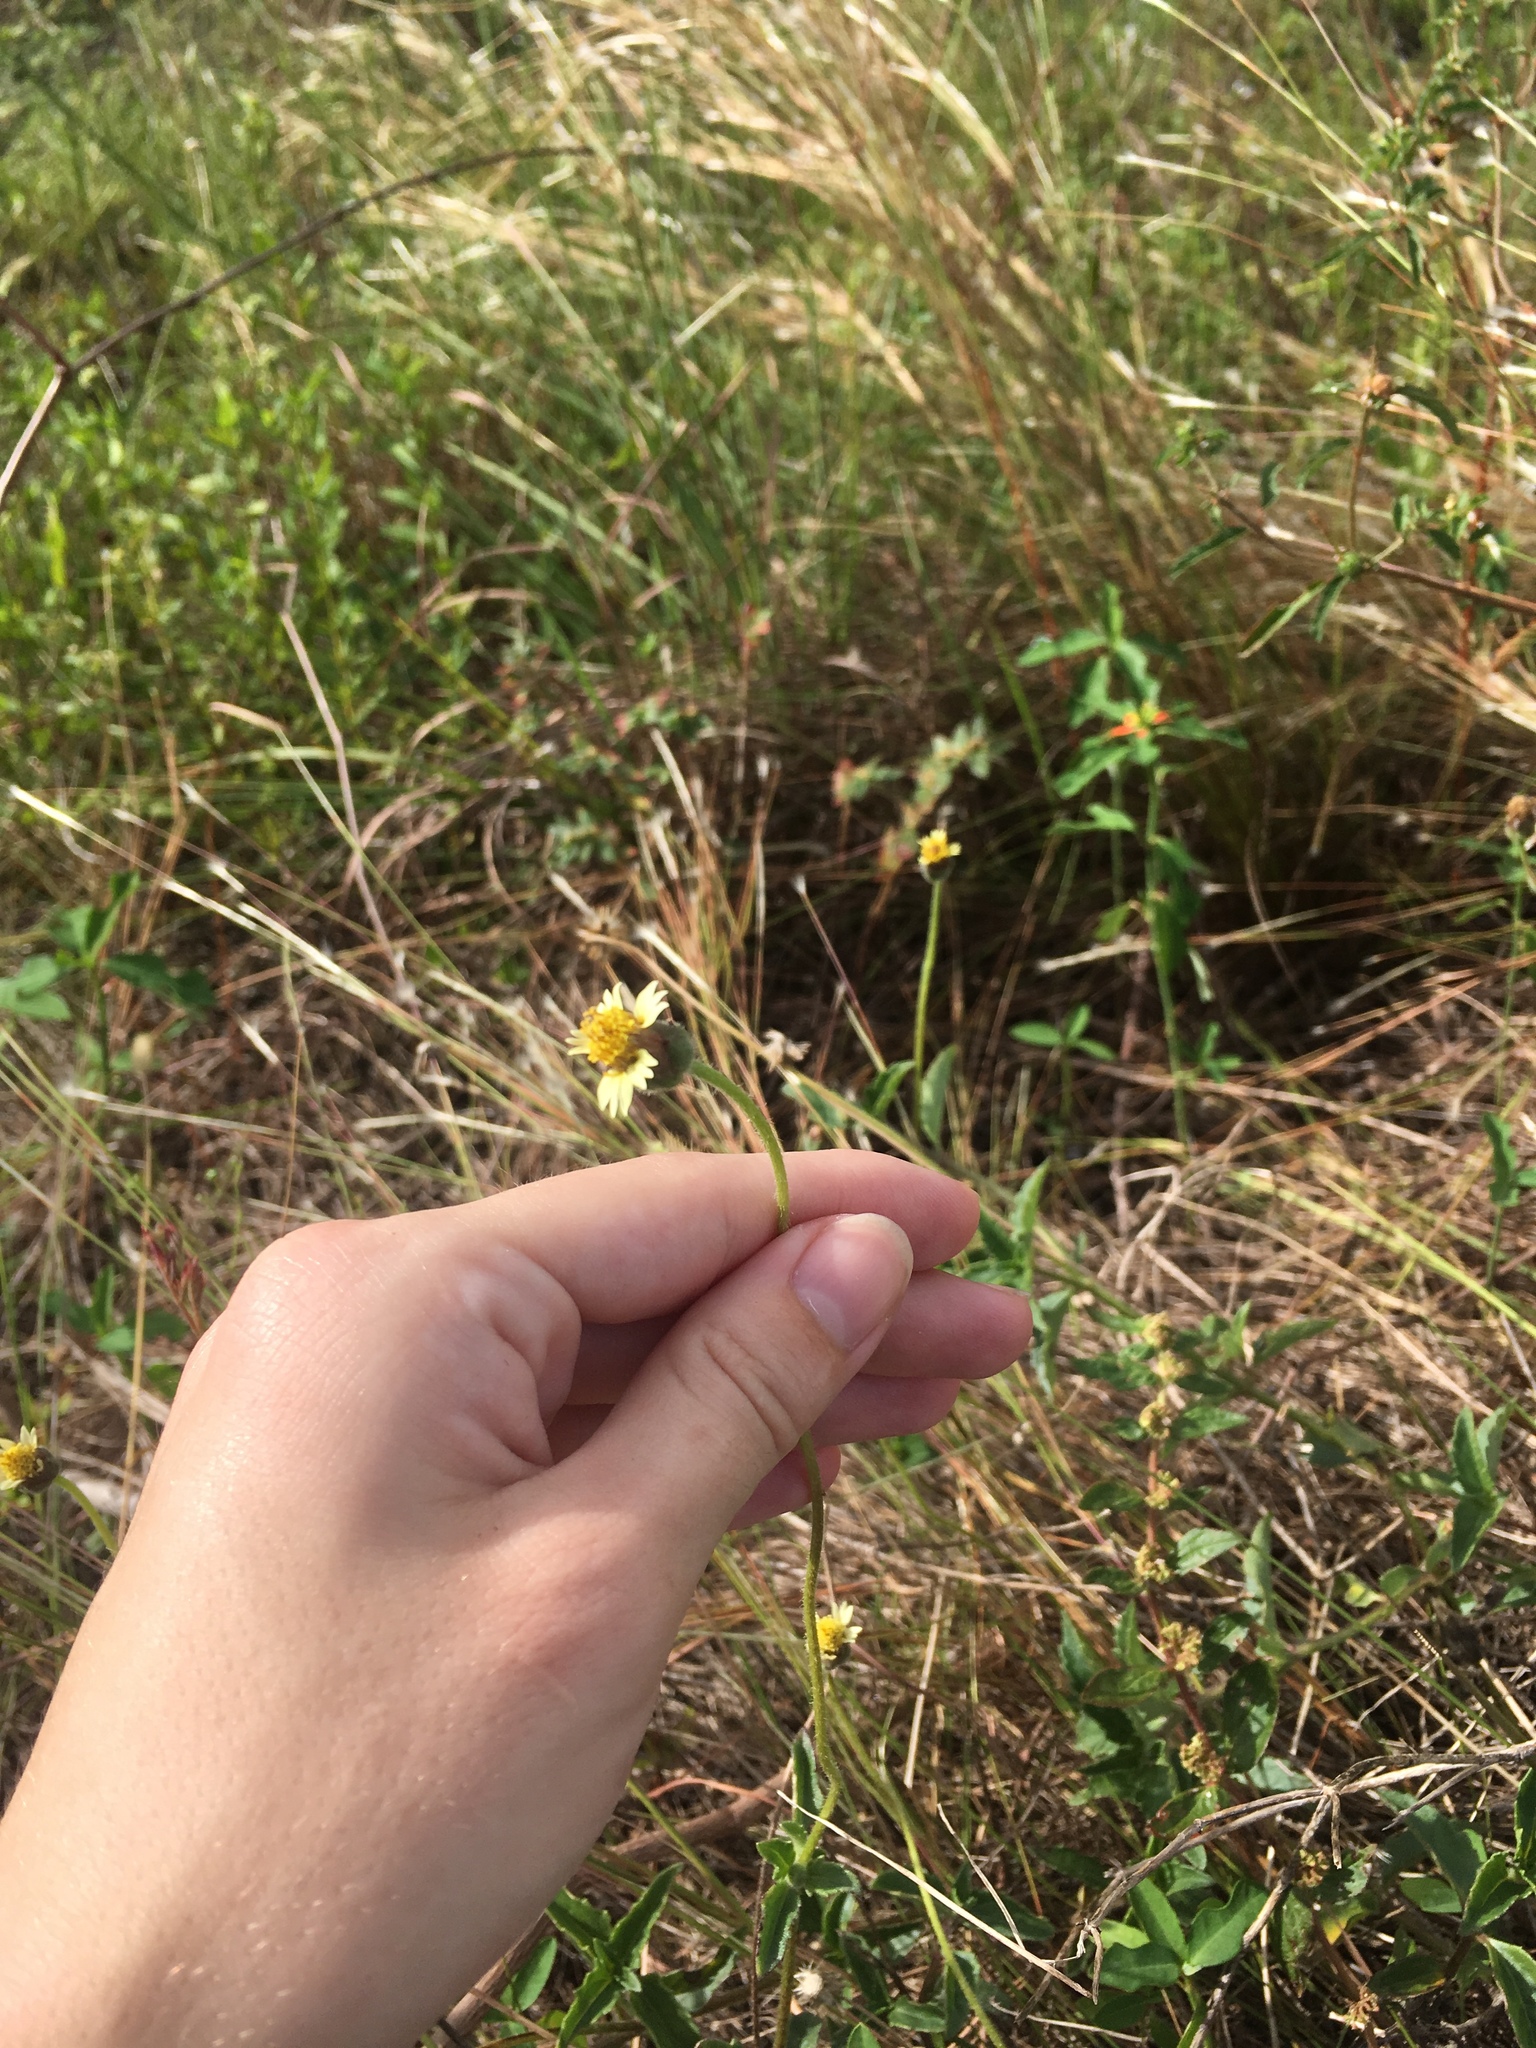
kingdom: Plantae
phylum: Tracheophyta
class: Magnoliopsida
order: Asterales
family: Asteraceae
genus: Tridax
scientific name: Tridax procumbens
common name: Coatbuttons
